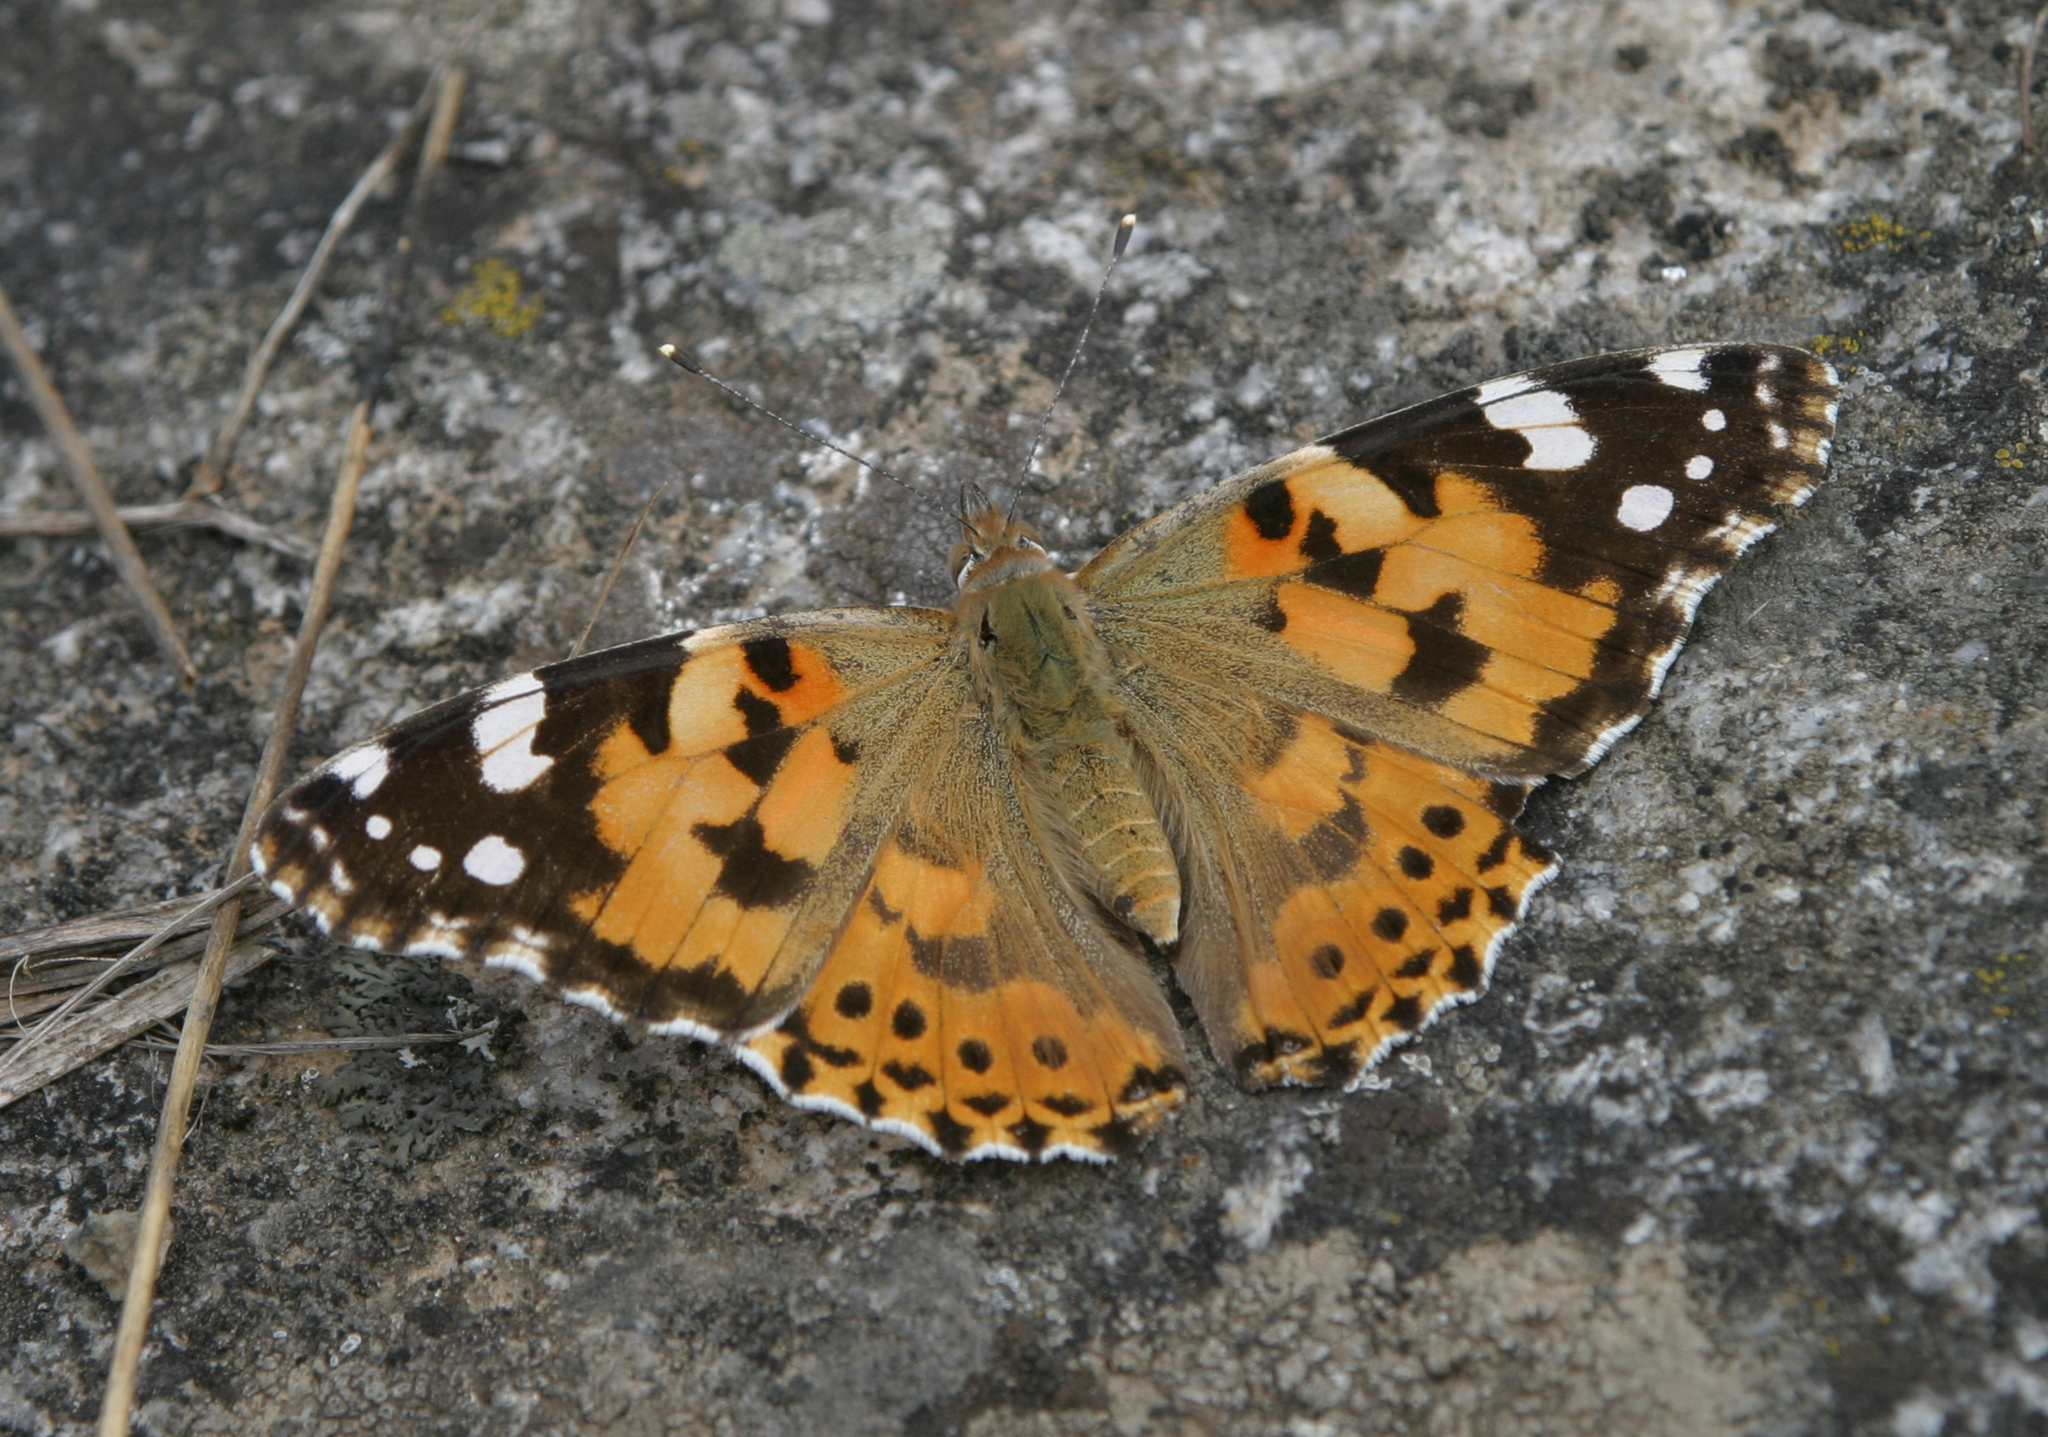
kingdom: Animalia
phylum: Arthropoda
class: Insecta
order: Lepidoptera
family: Nymphalidae
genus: Vanessa
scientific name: Vanessa cardui
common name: Painted lady
